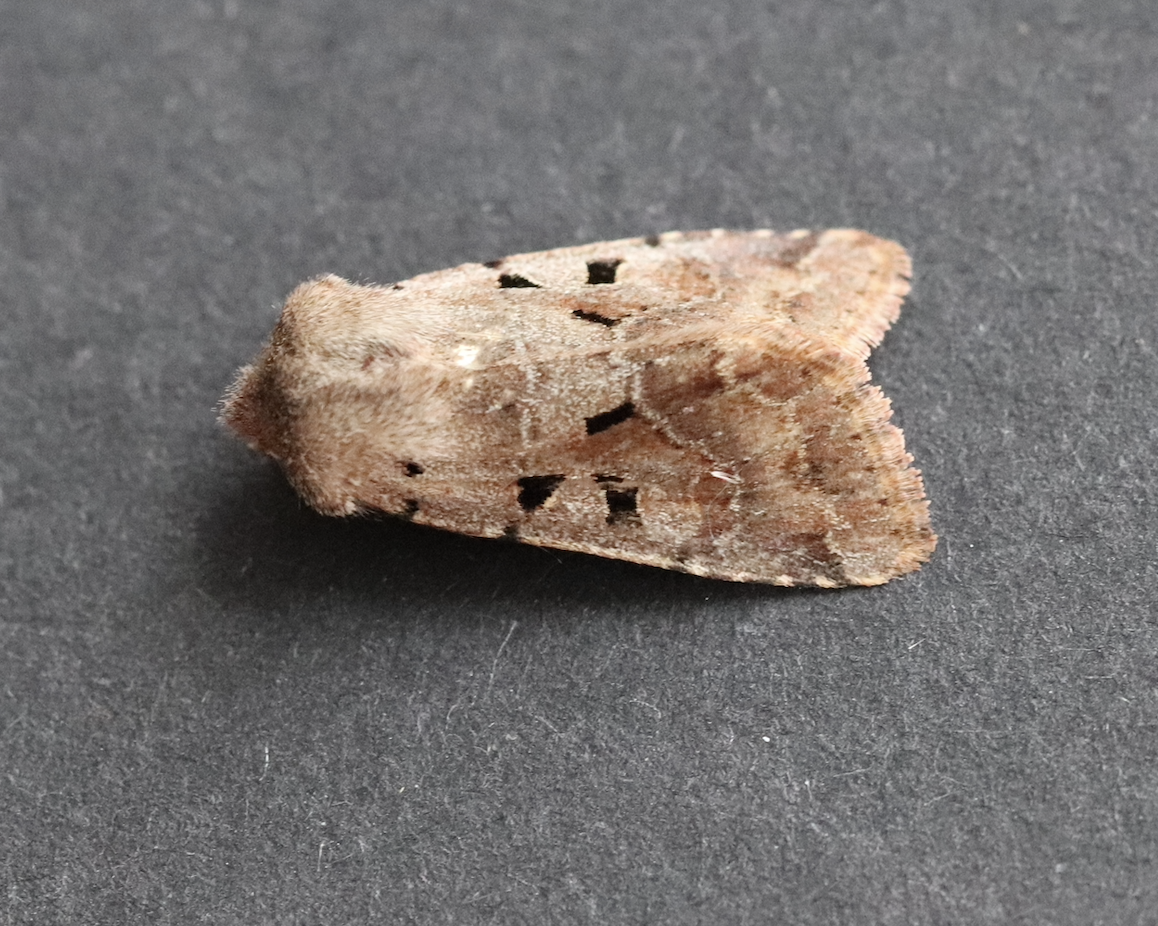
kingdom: Animalia
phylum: Arthropoda
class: Insecta
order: Lepidoptera
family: Noctuidae
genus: Orthosia
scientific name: Orthosia gothica
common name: Hebrew character
